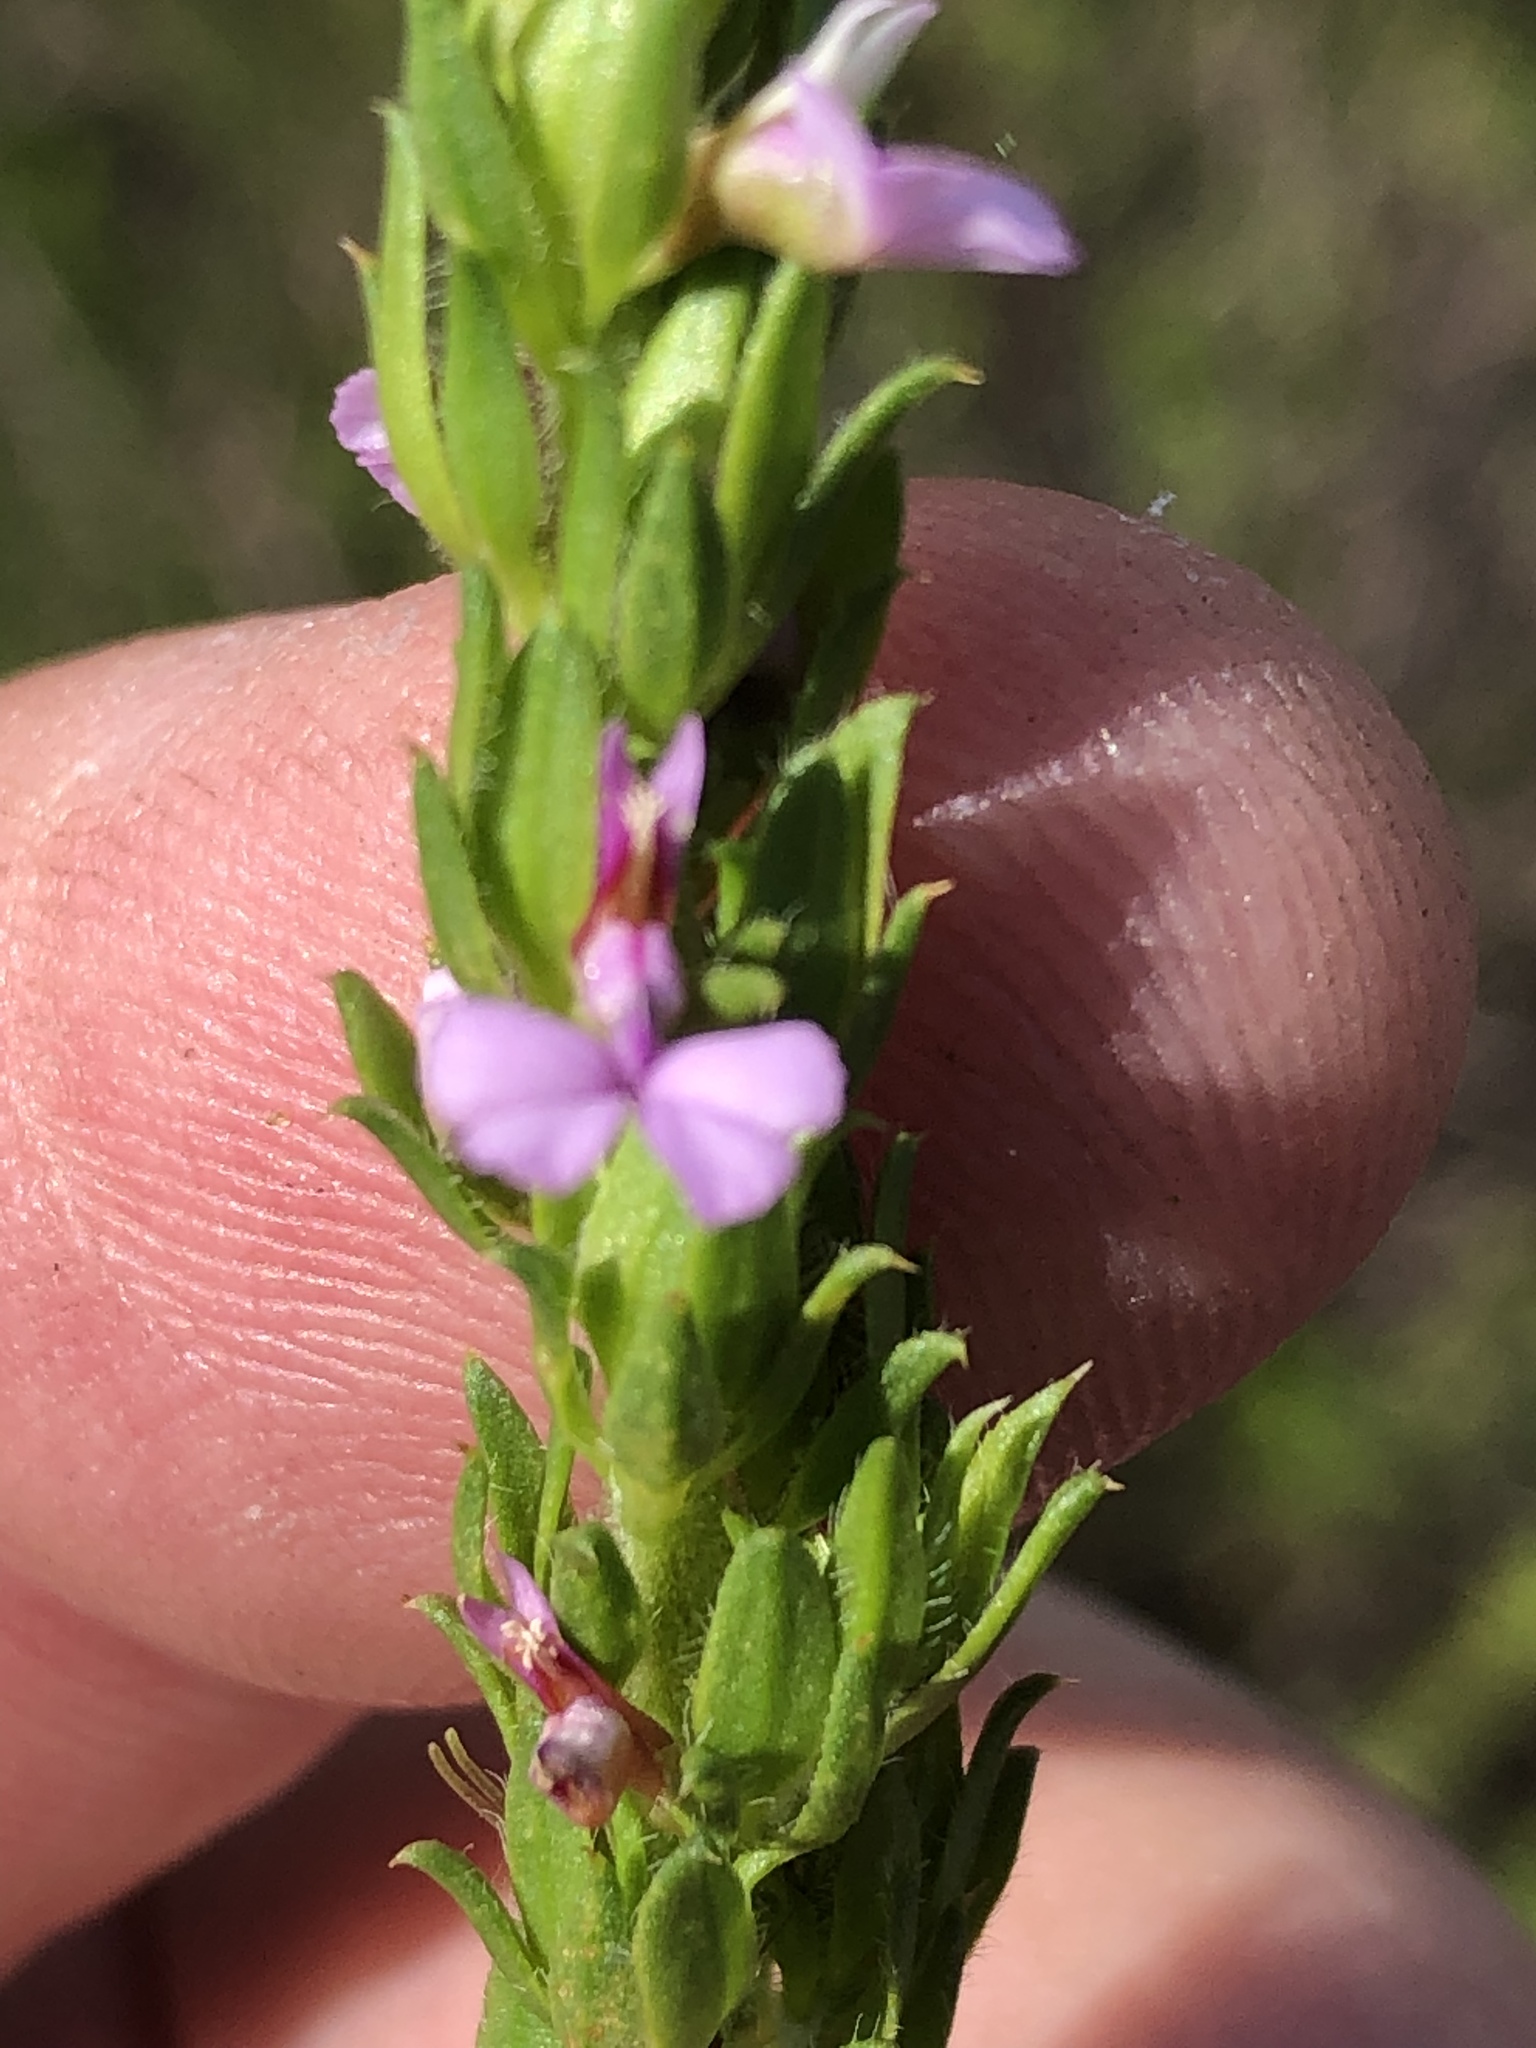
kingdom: Plantae
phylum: Tracheophyta
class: Magnoliopsida
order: Fabales
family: Polygalaceae
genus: Muraltia
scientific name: Muraltia alopecuroides
